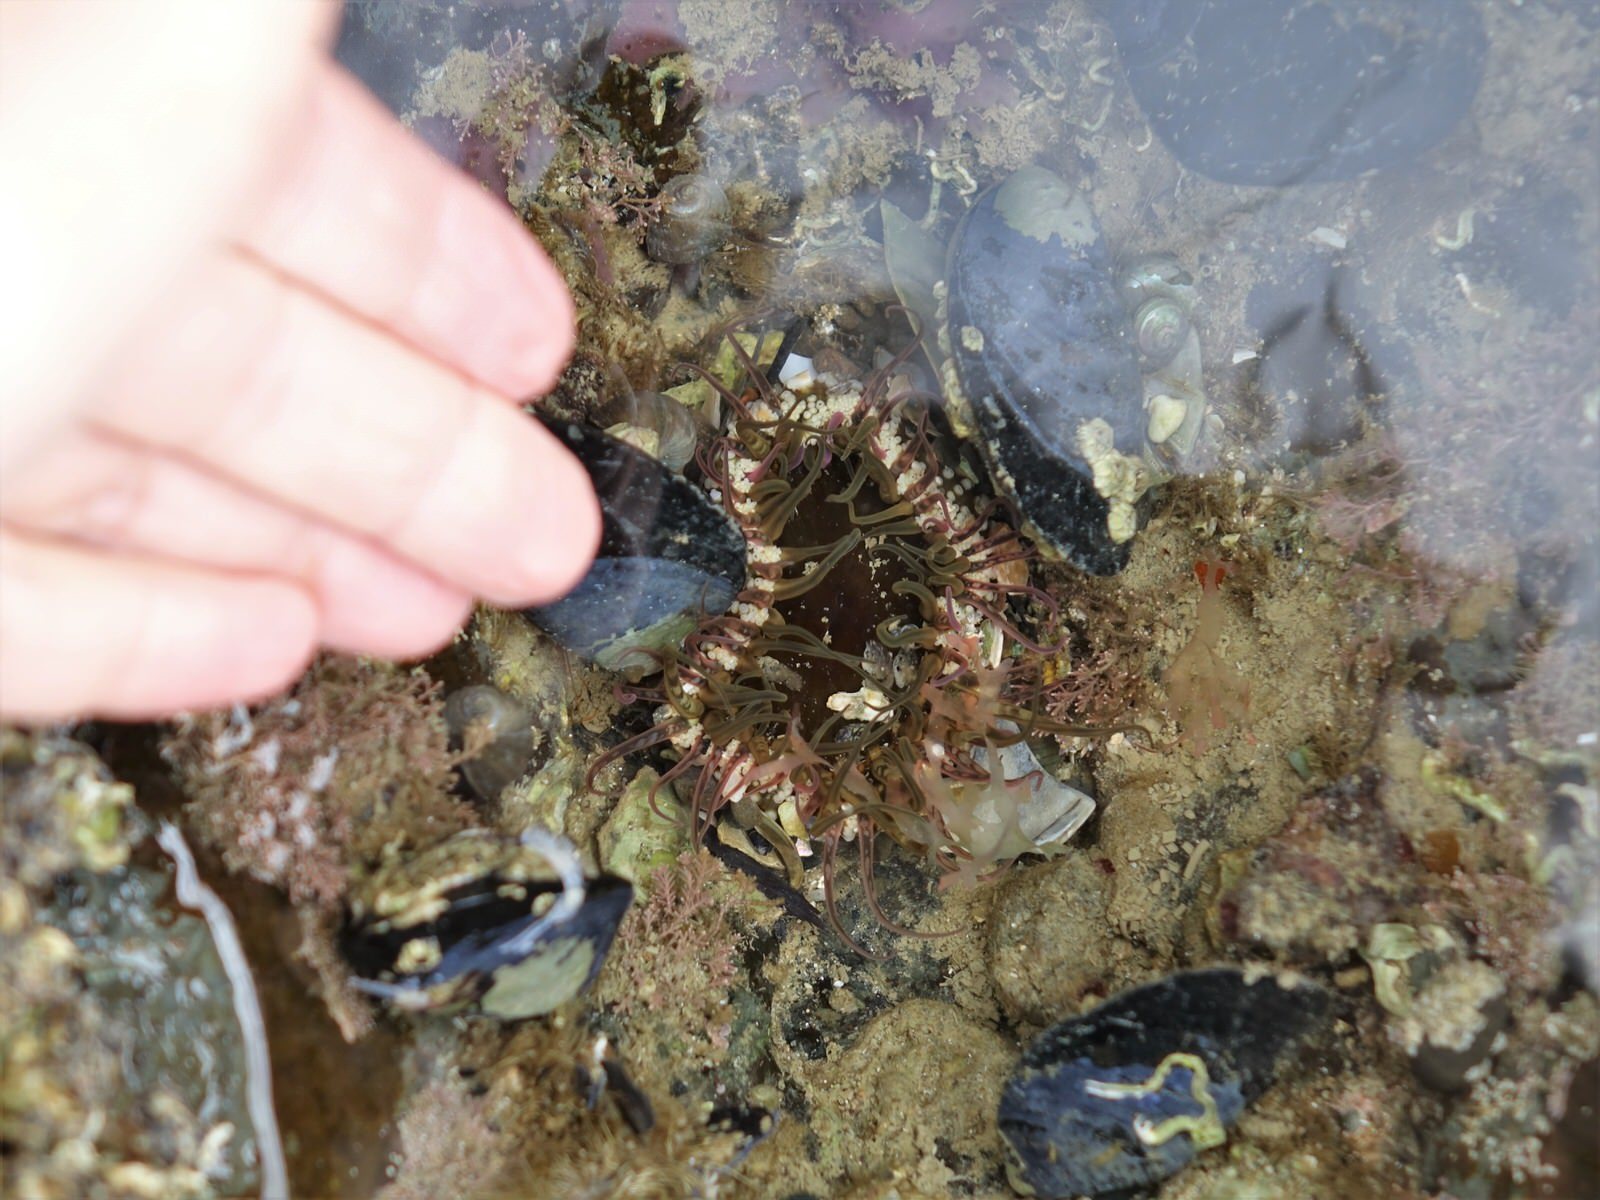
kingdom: Animalia
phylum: Cnidaria
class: Anthozoa
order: Actiniaria
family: Actiniidae
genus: Oulactis
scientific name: Oulactis muscosa
